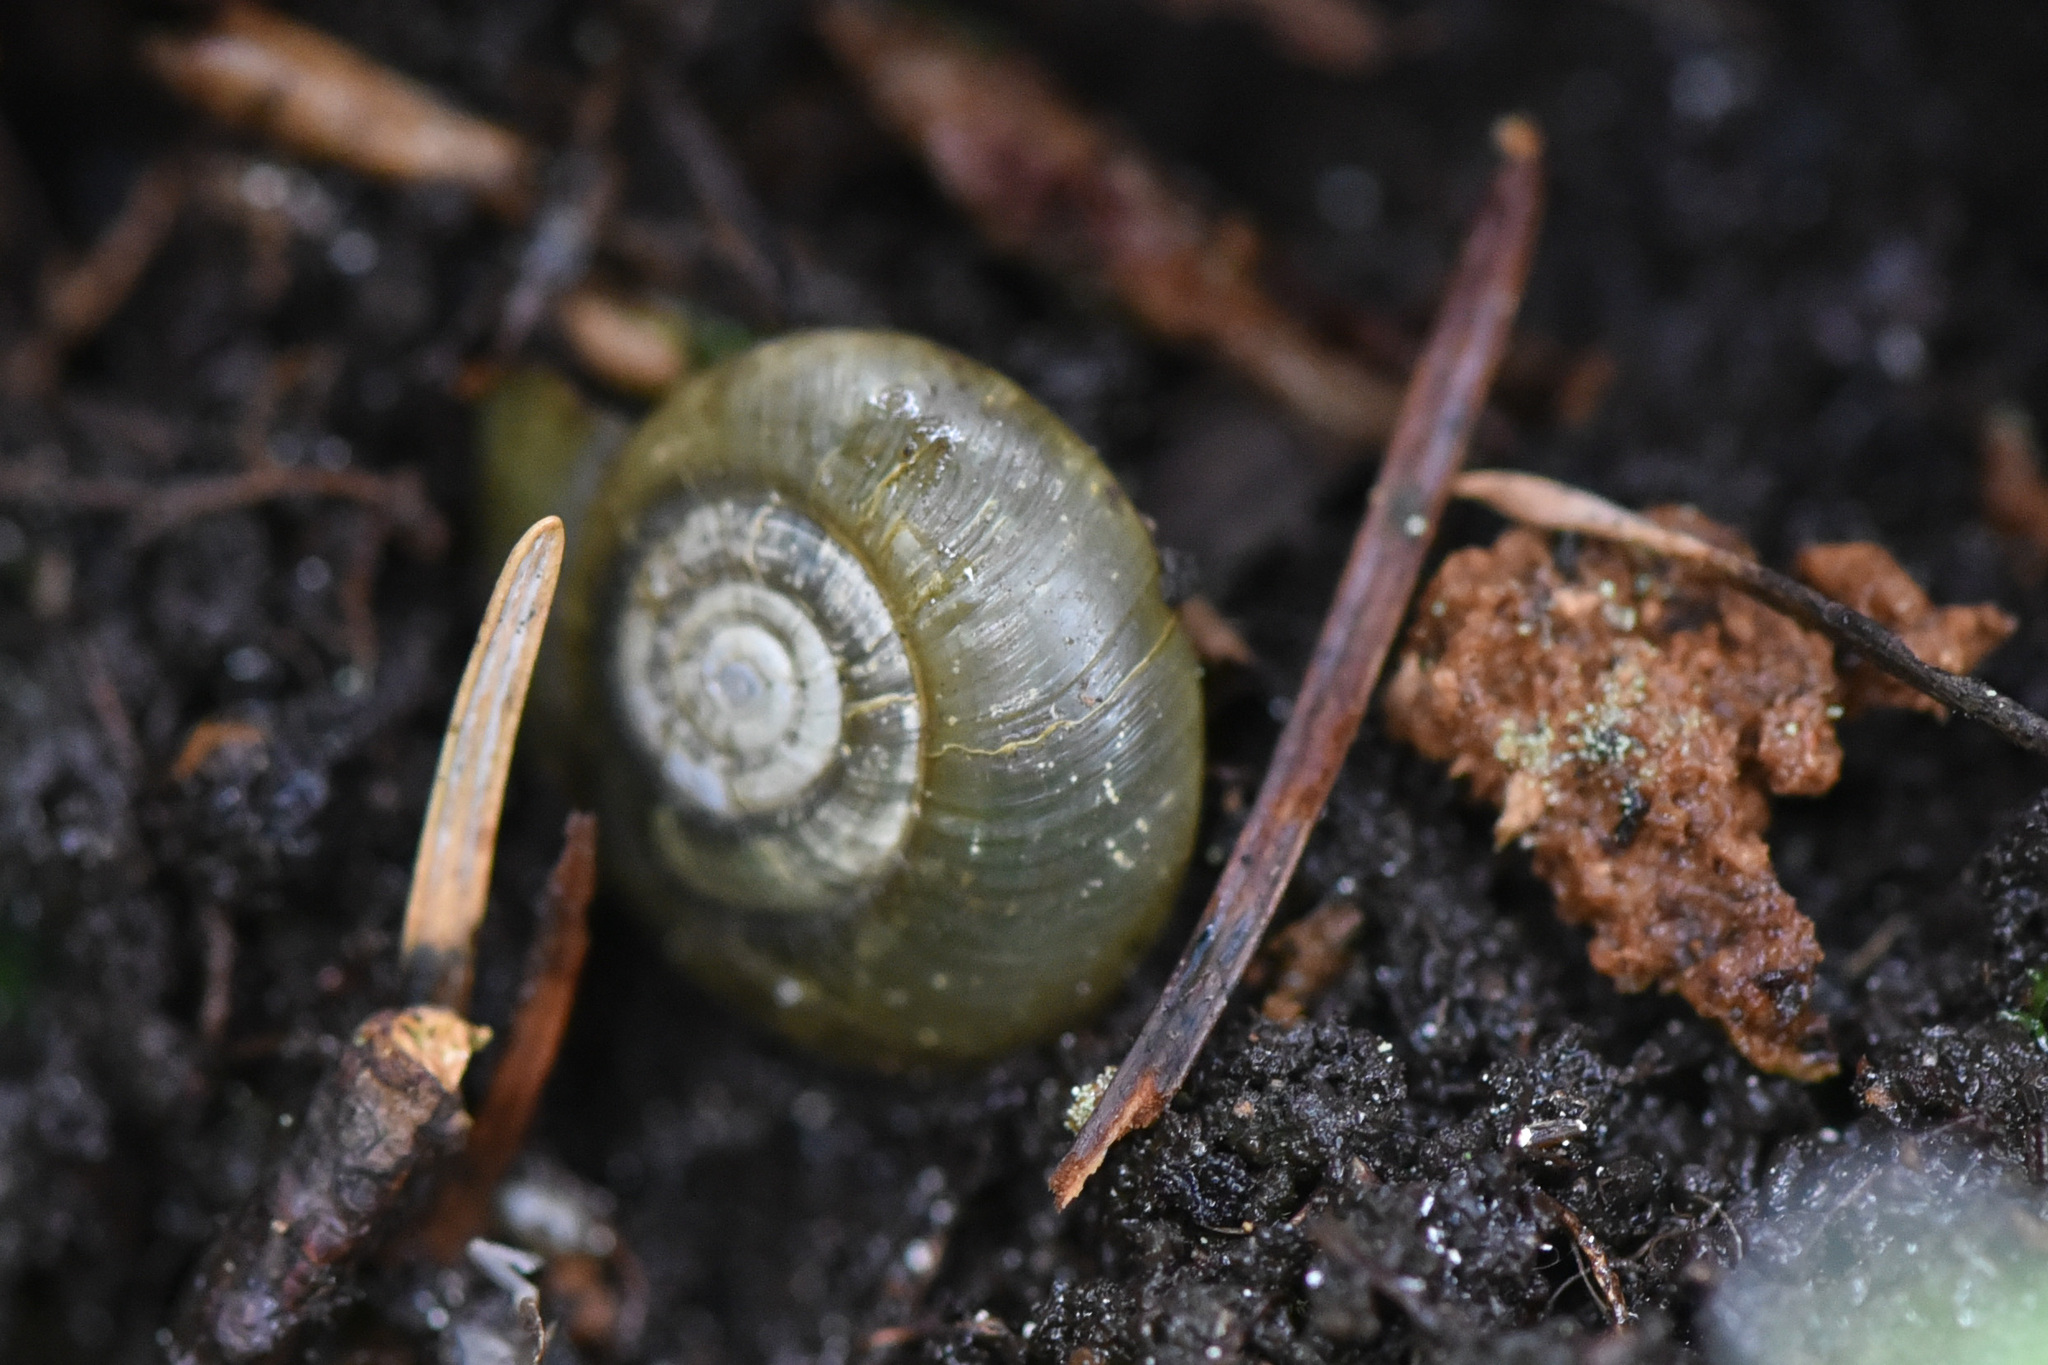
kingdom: Animalia
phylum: Mollusca
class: Gastropoda
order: Stylommatophora
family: Haplotrematidae
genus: Haplotrema
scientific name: Haplotrema vancouverense
